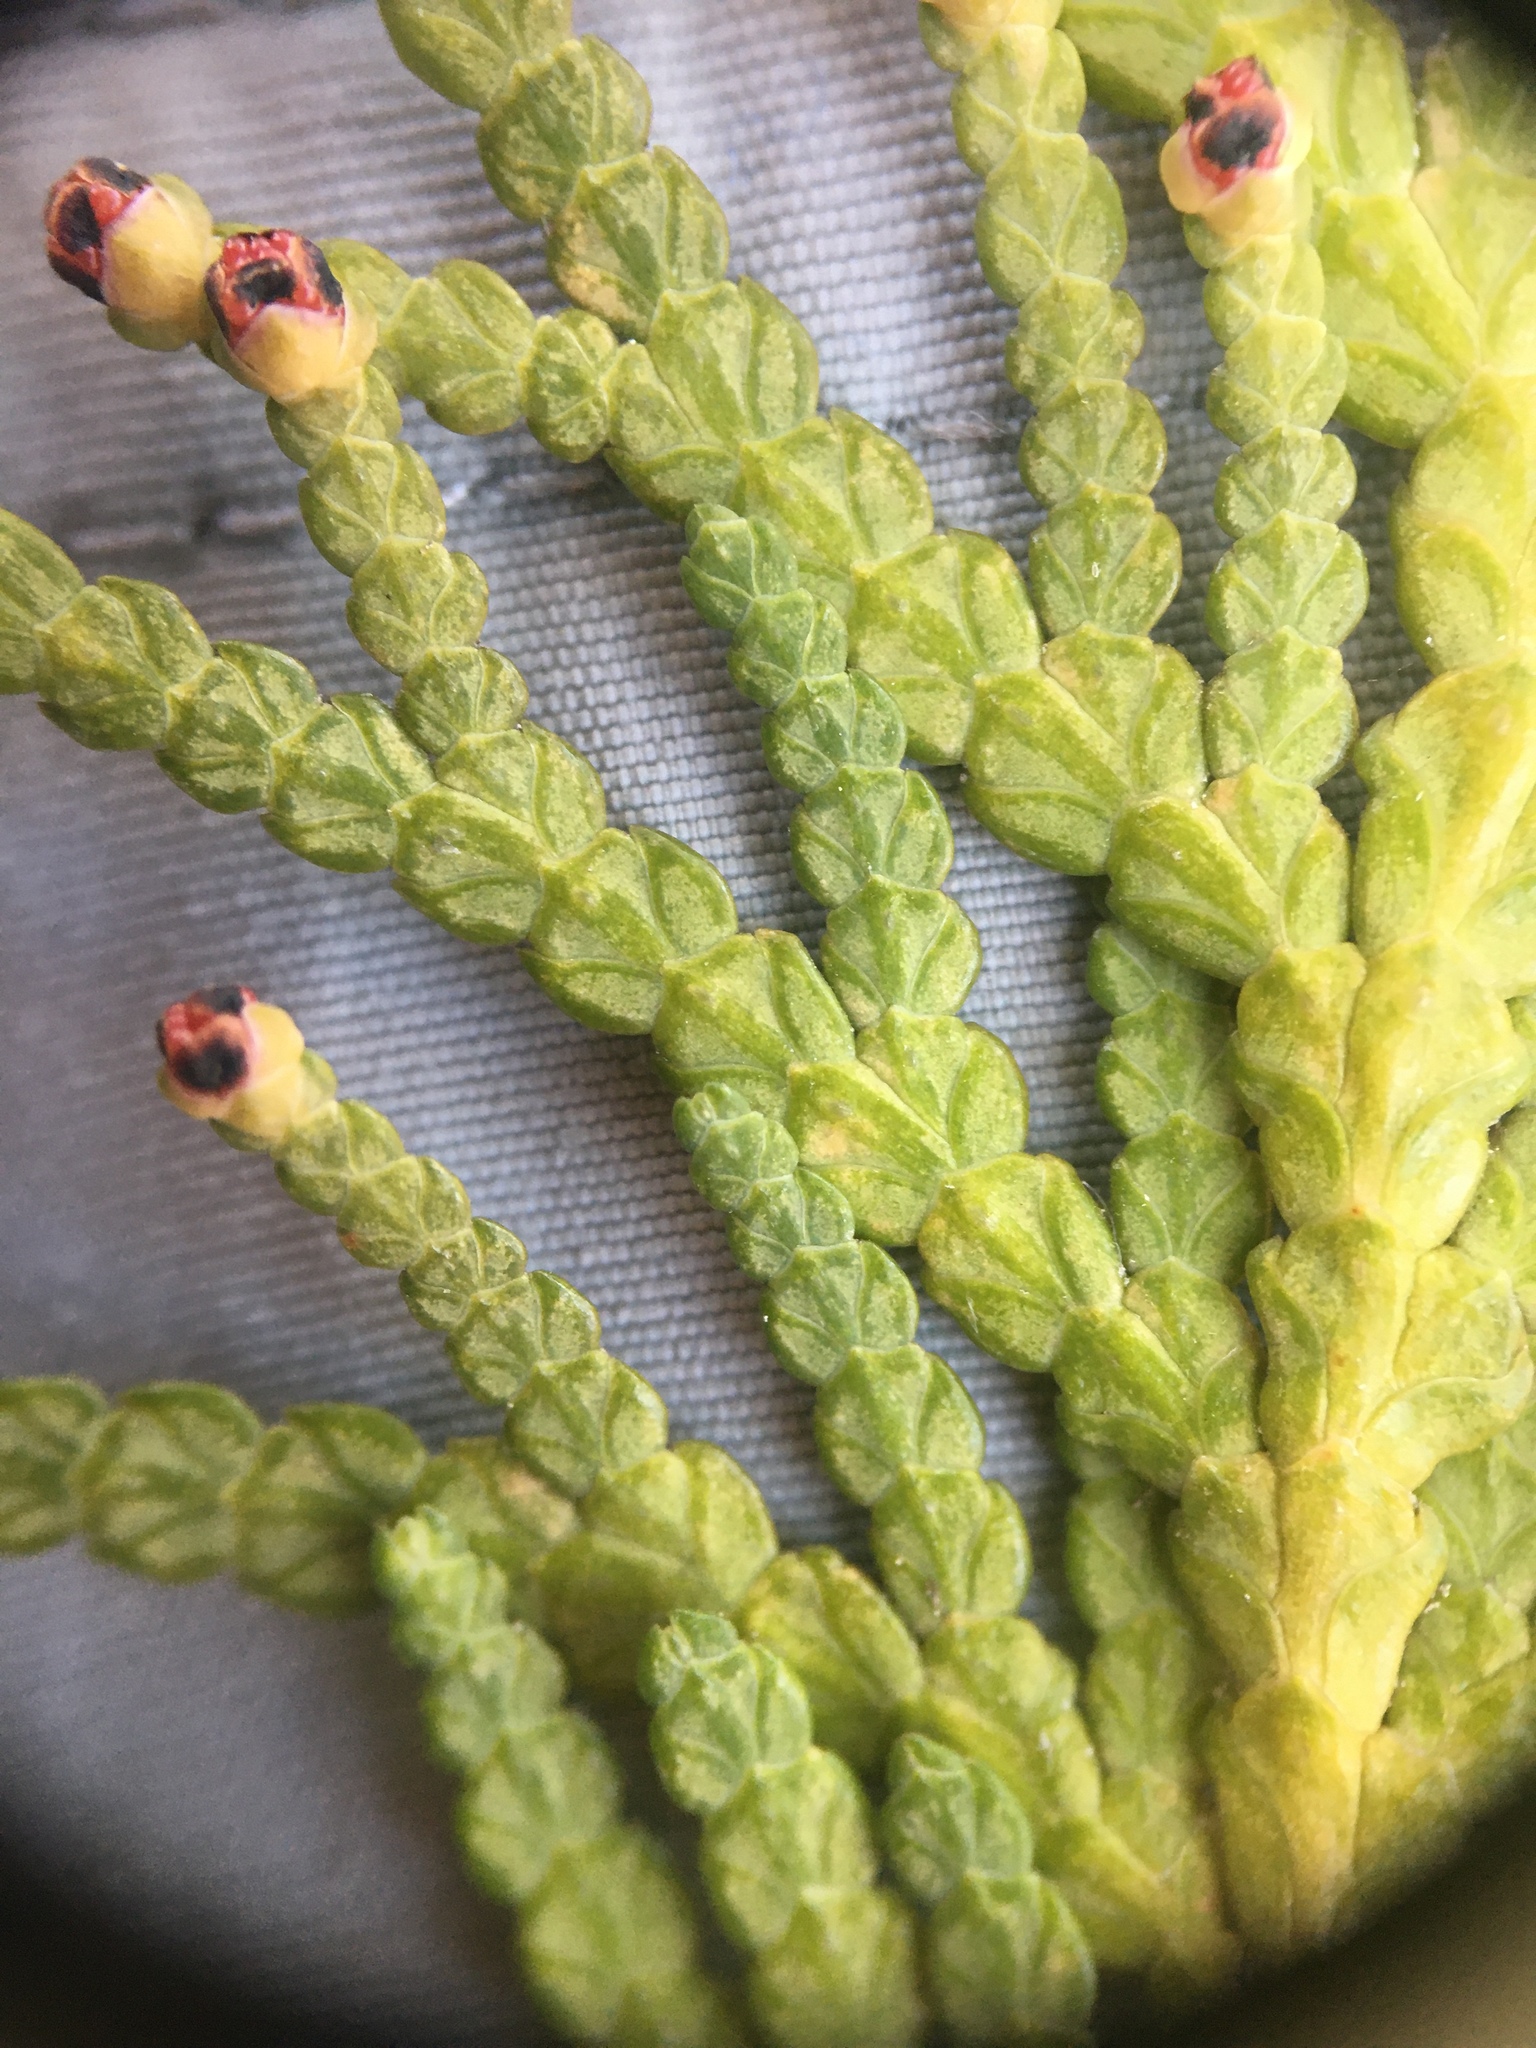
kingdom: Plantae
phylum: Tracheophyta
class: Pinopsida
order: Pinales
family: Cupressaceae
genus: Thuja
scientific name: Thuja occidentalis
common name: Northern white-cedar
